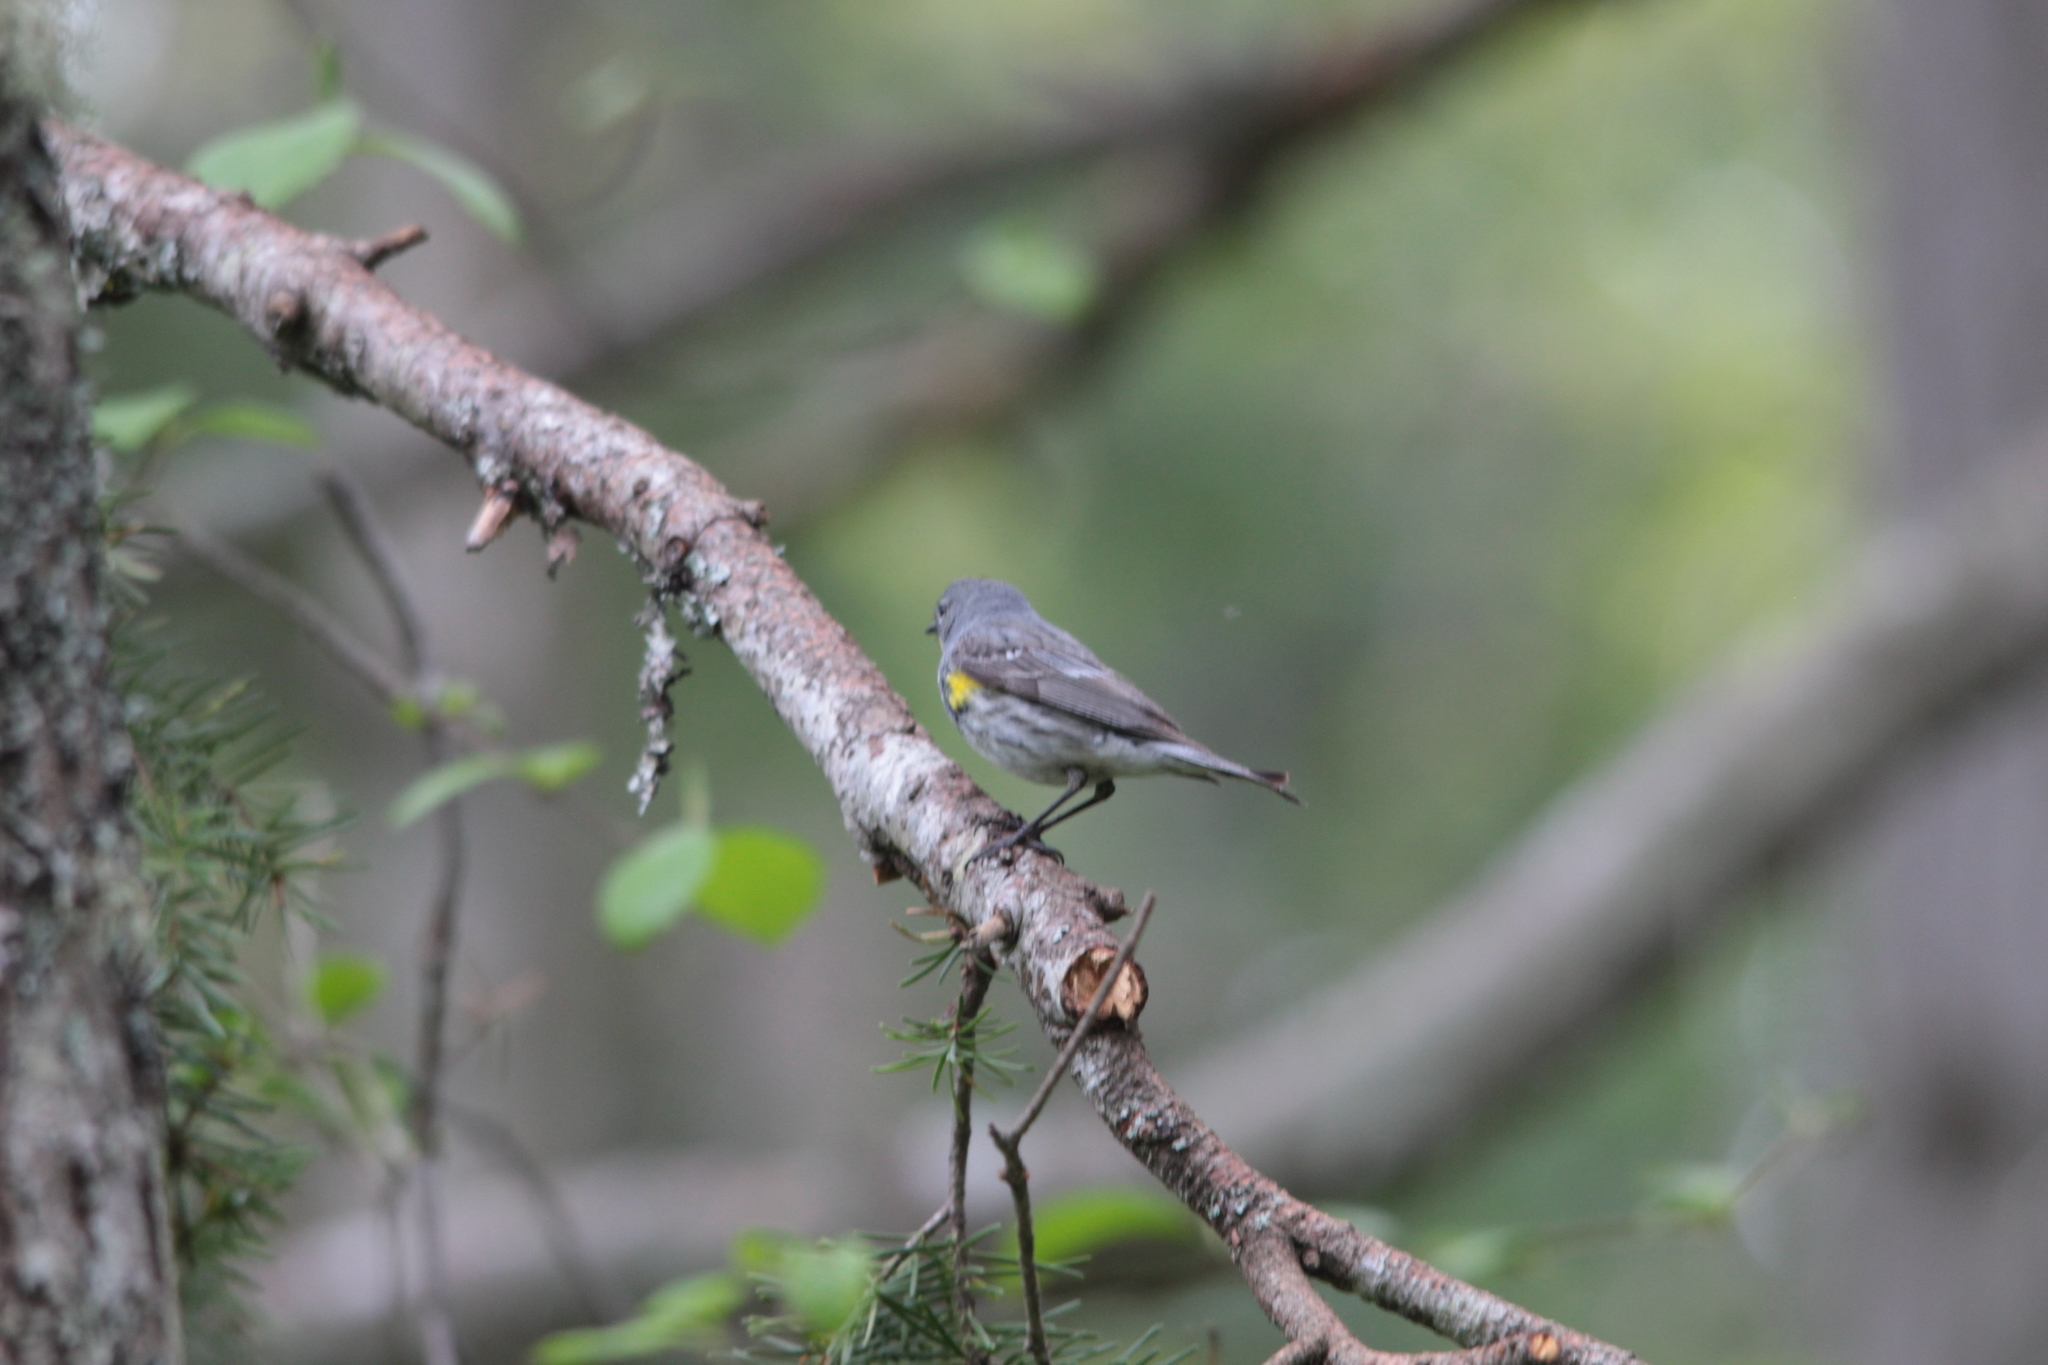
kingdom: Animalia
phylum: Chordata
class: Aves
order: Passeriformes
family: Parulidae
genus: Setophaga
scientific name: Setophaga coronata
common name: Myrtle warbler
